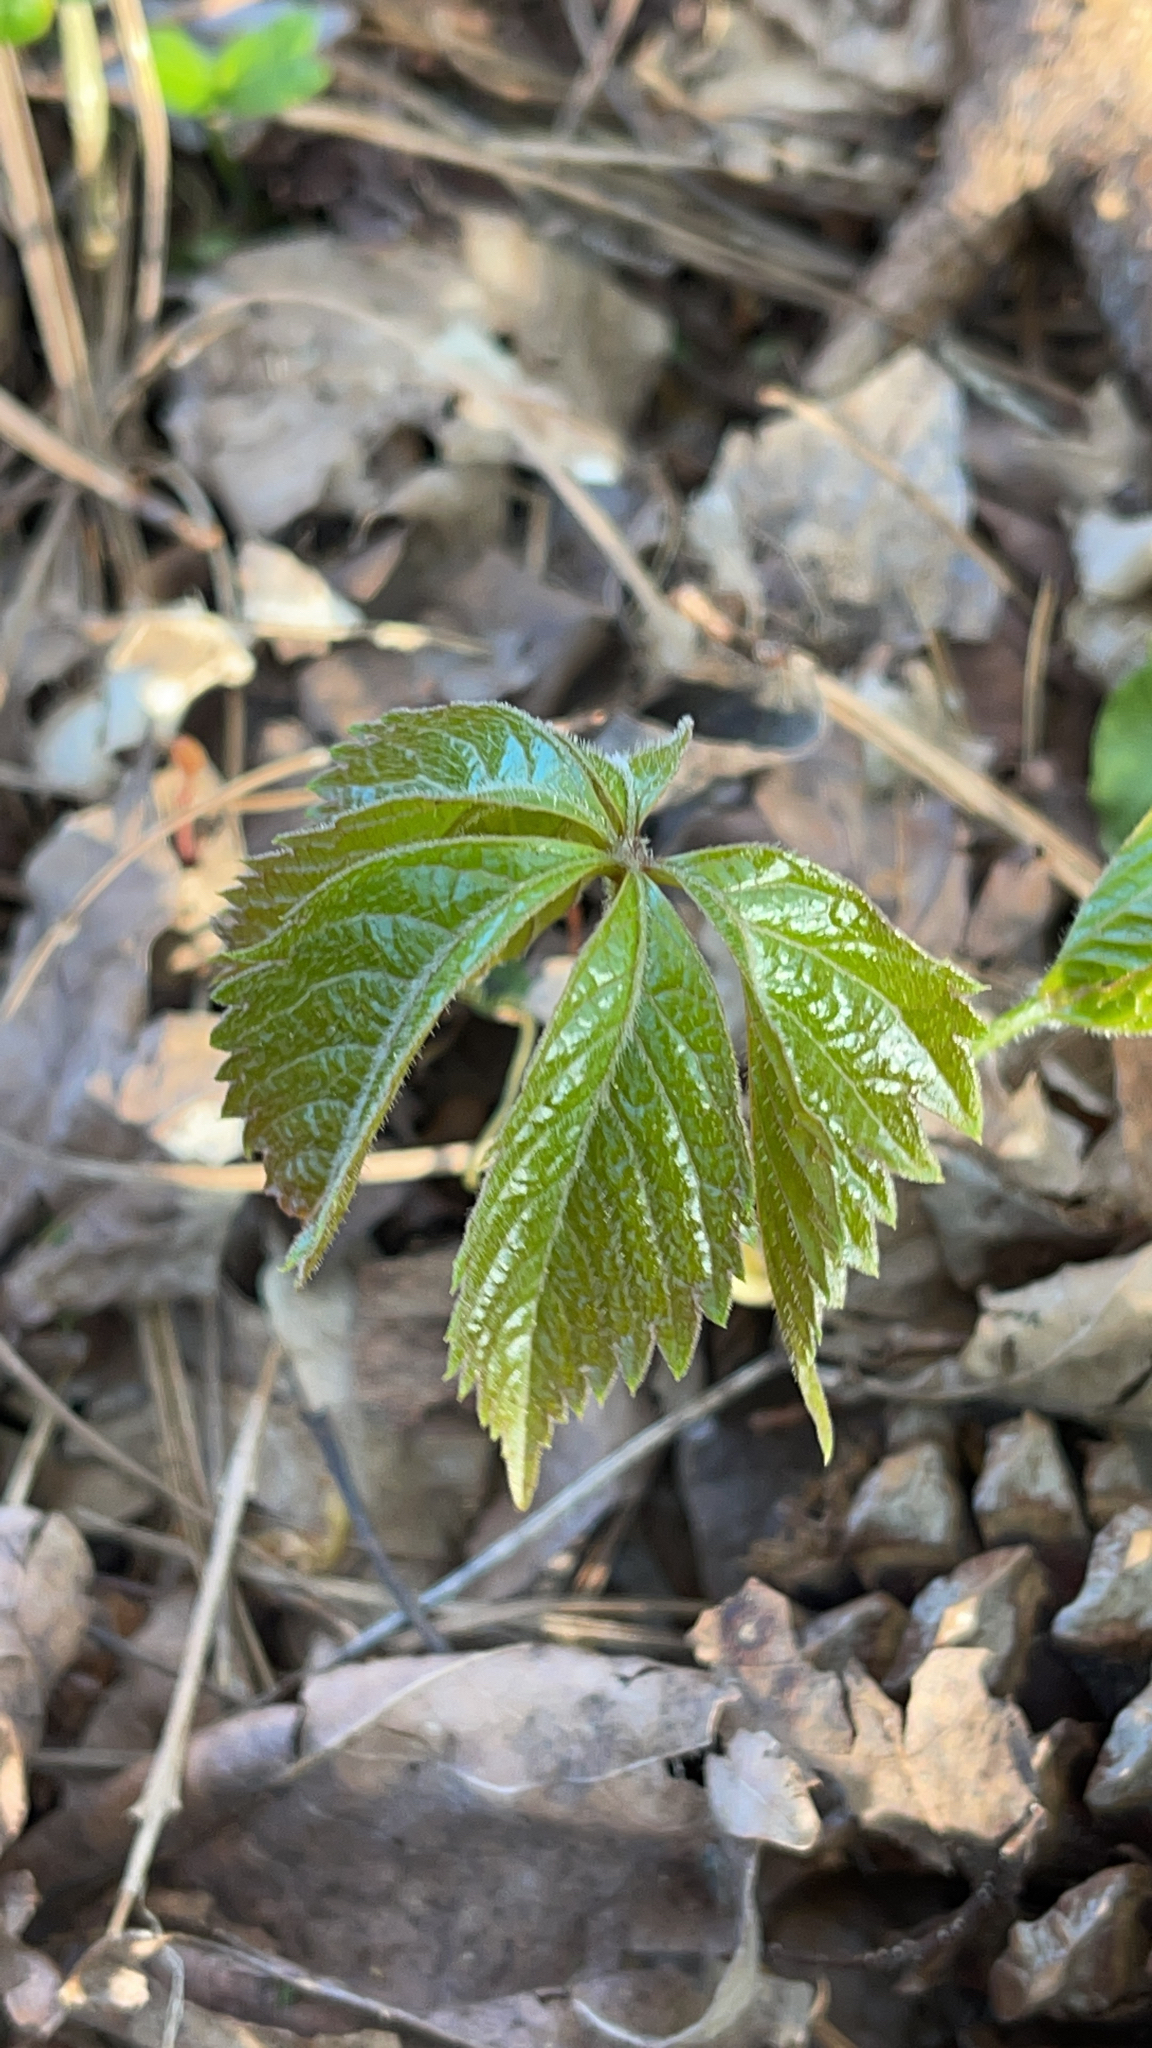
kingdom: Plantae
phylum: Tracheophyta
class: Magnoliopsida
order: Vitales
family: Vitaceae
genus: Parthenocissus
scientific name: Parthenocissus quinquefolia
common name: Virginia-creeper
